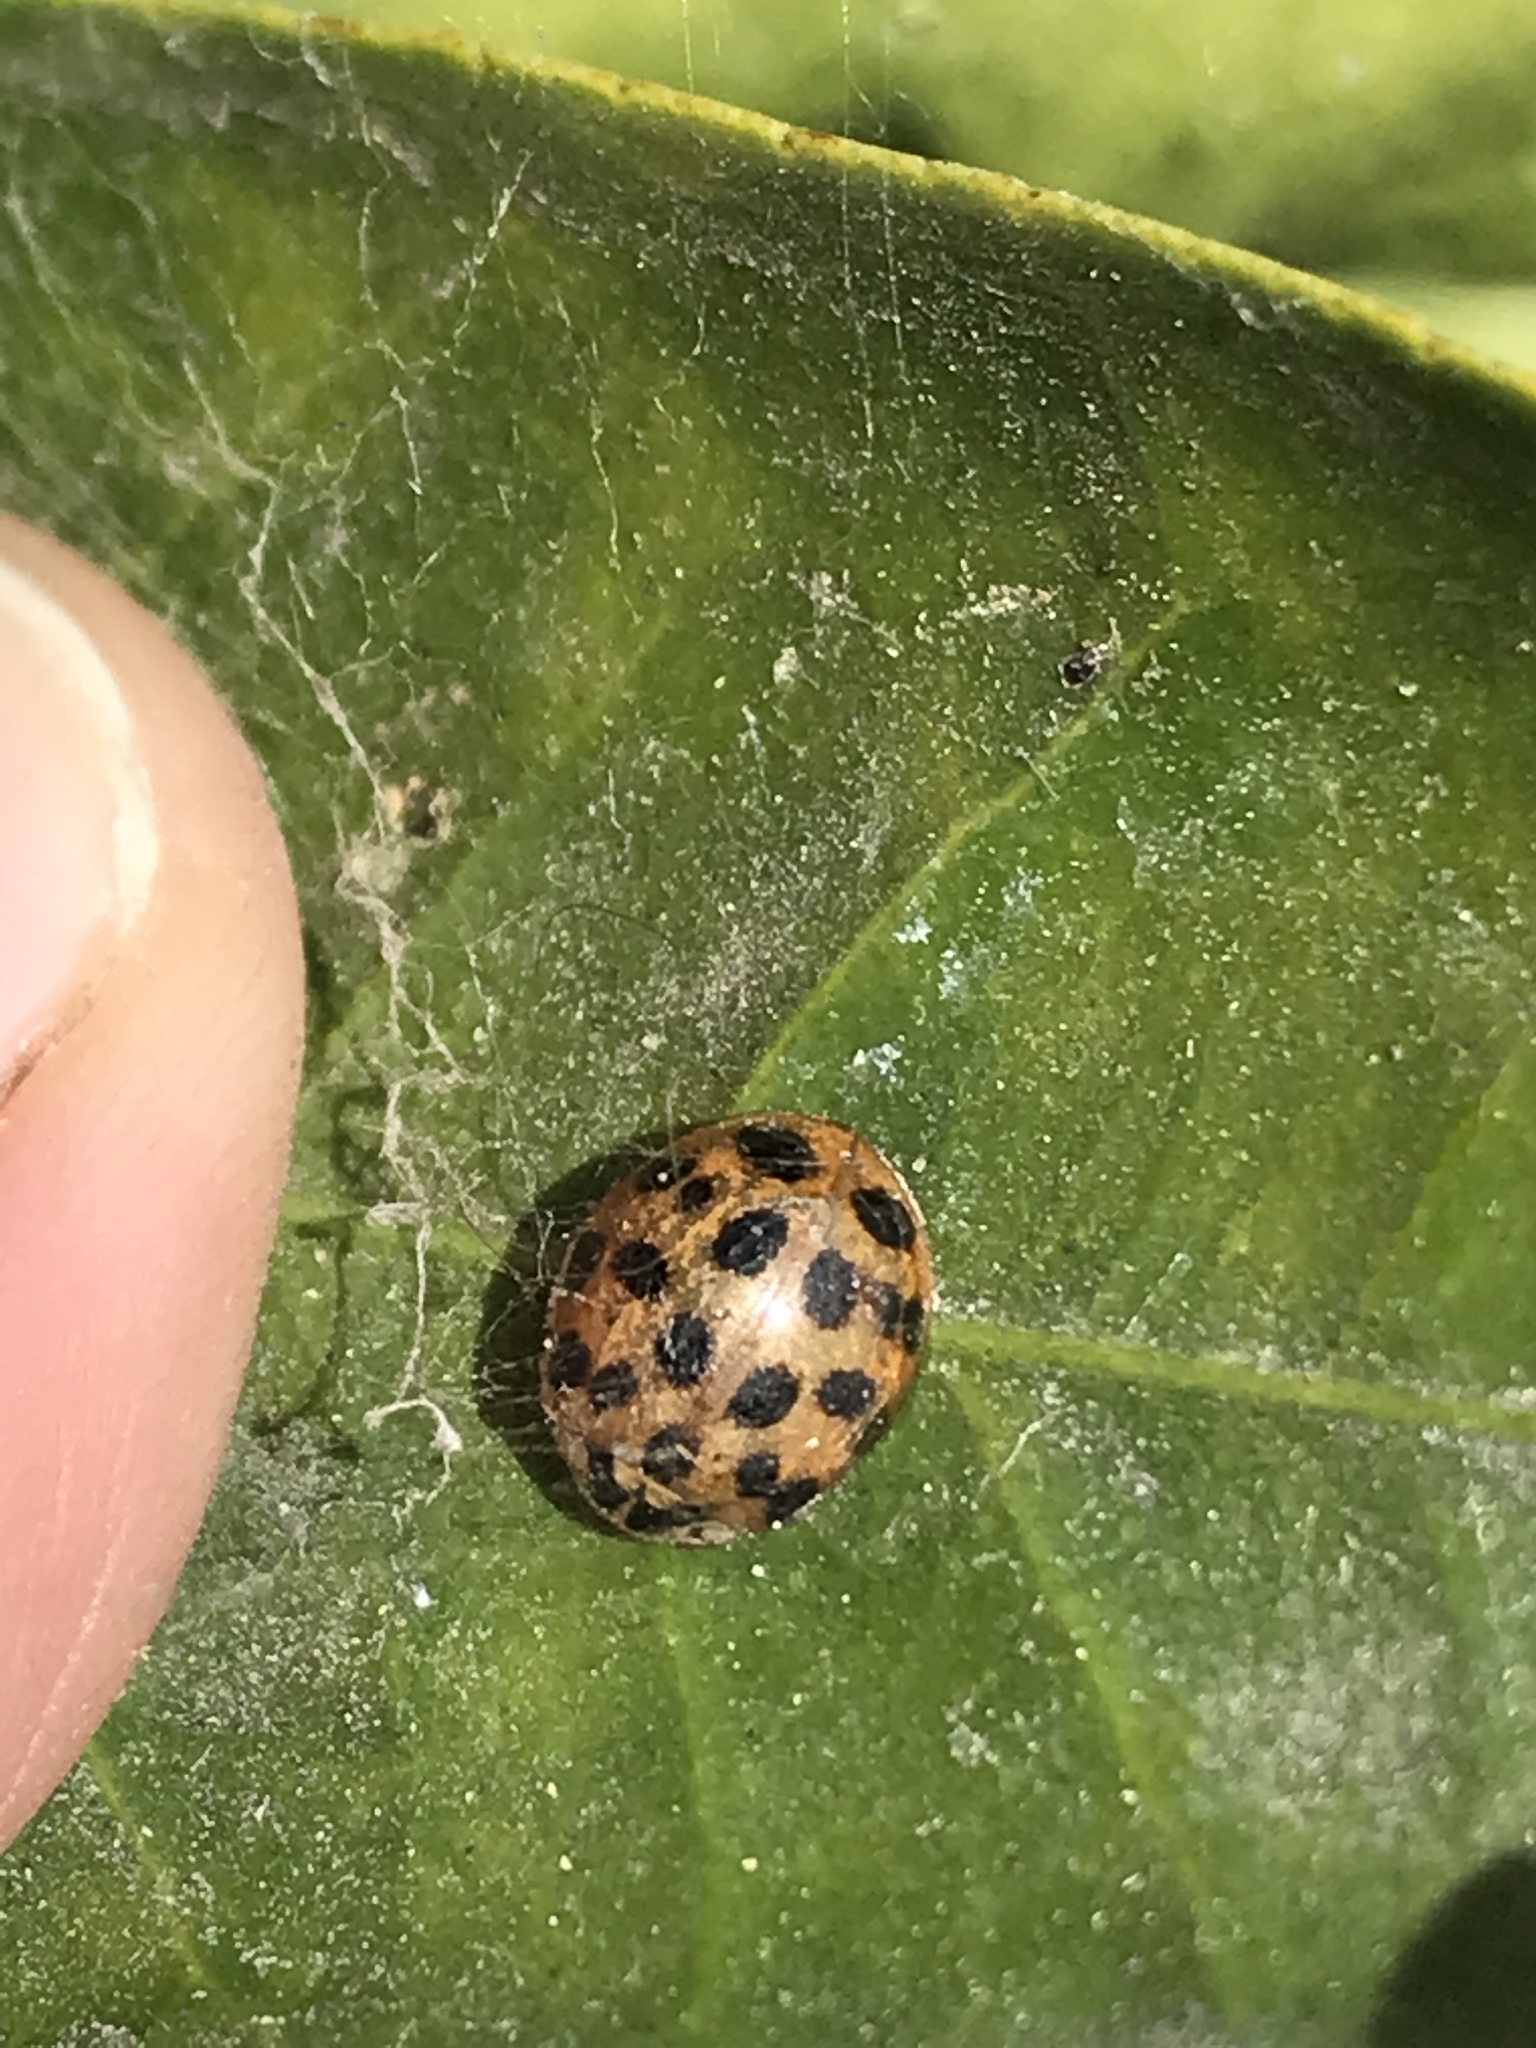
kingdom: Animalia
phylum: Arthropoda
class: Insecta
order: Coleoptera
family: Coccinellidae
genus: Harmonia
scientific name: Harmonia axyridis
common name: Harlequin ladybird
